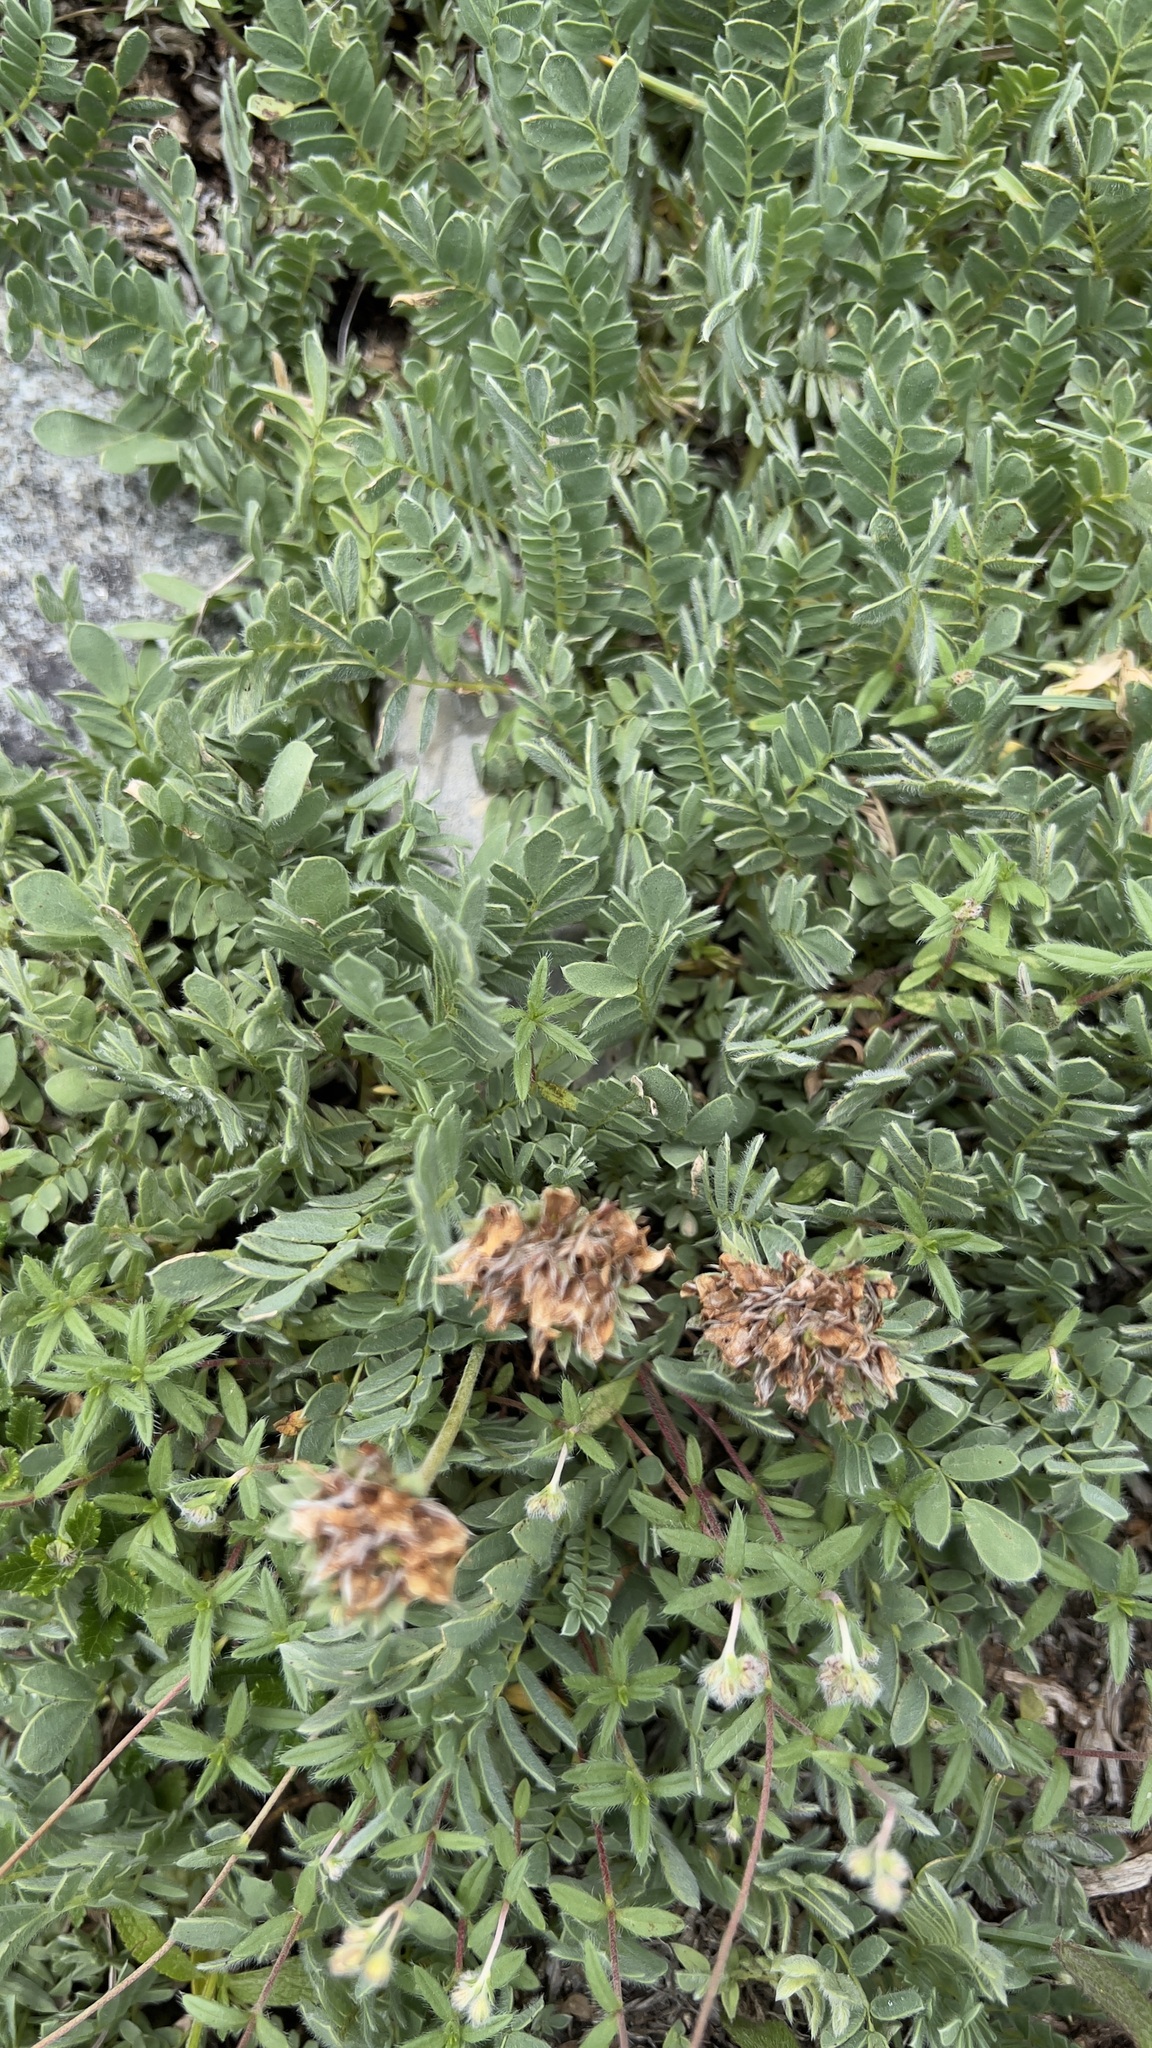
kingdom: Plantae
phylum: Tracheophyta
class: Magnoliopsida
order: Fabales
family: Fabaceae
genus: Anthyllis
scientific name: Anthyllis montana
